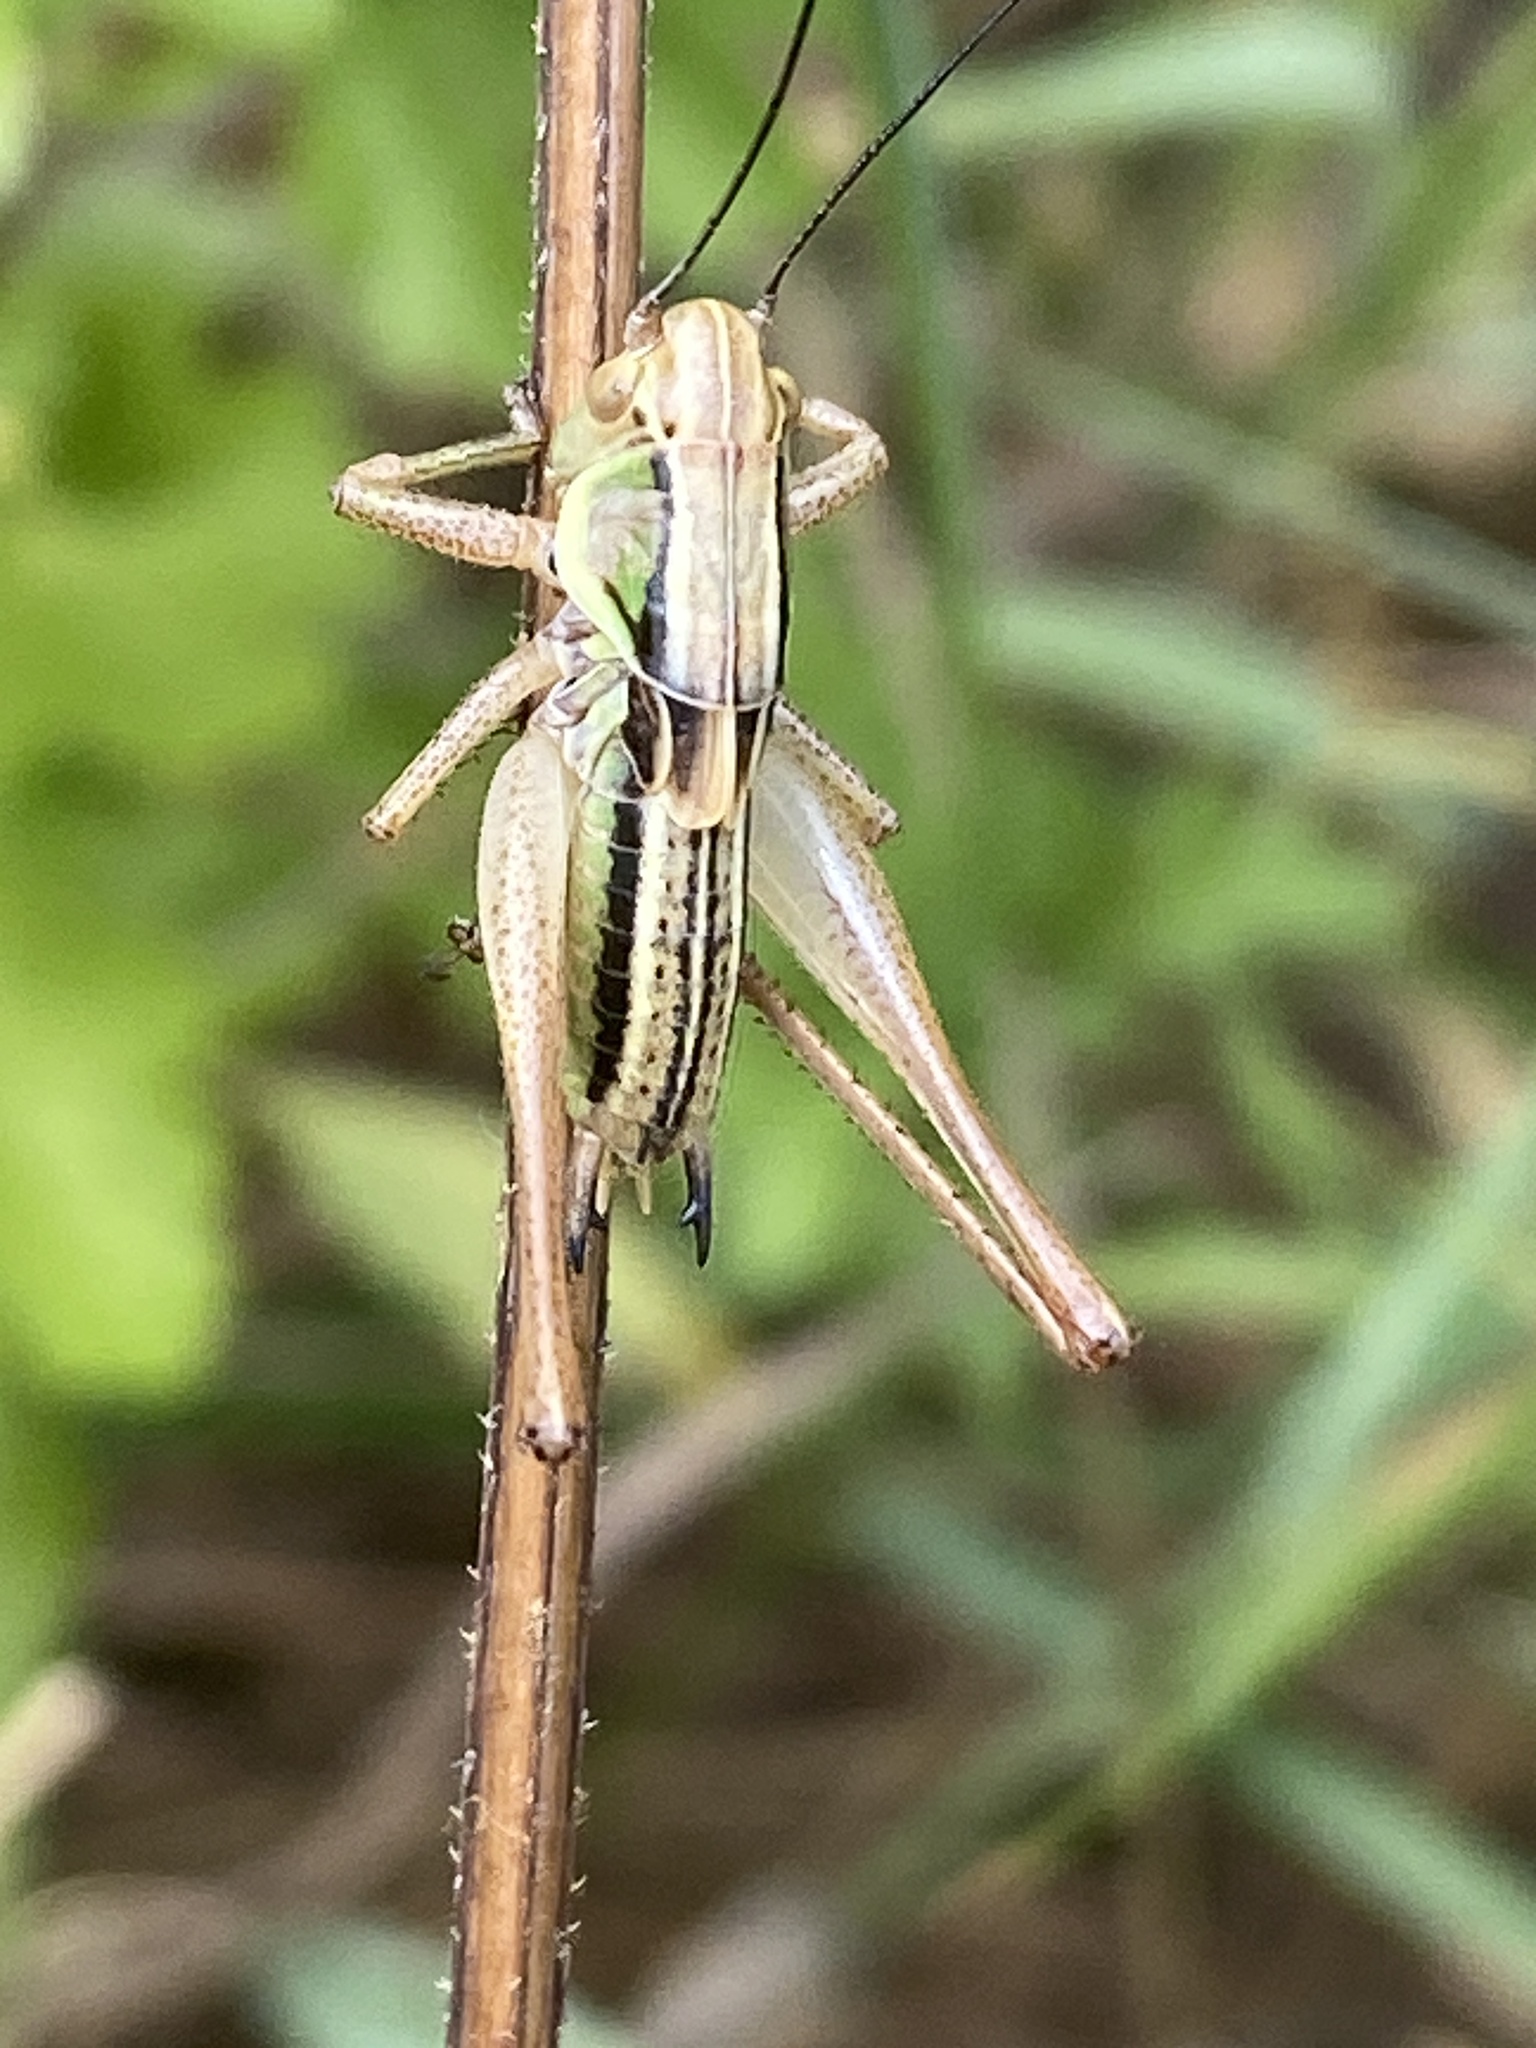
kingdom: Animalia
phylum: Arthropoda
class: Insecta
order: Orthoptera
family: Tettigoniidae
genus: Roeseliana
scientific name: Roeseliana roeselii
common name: Roesel's bush cricket
